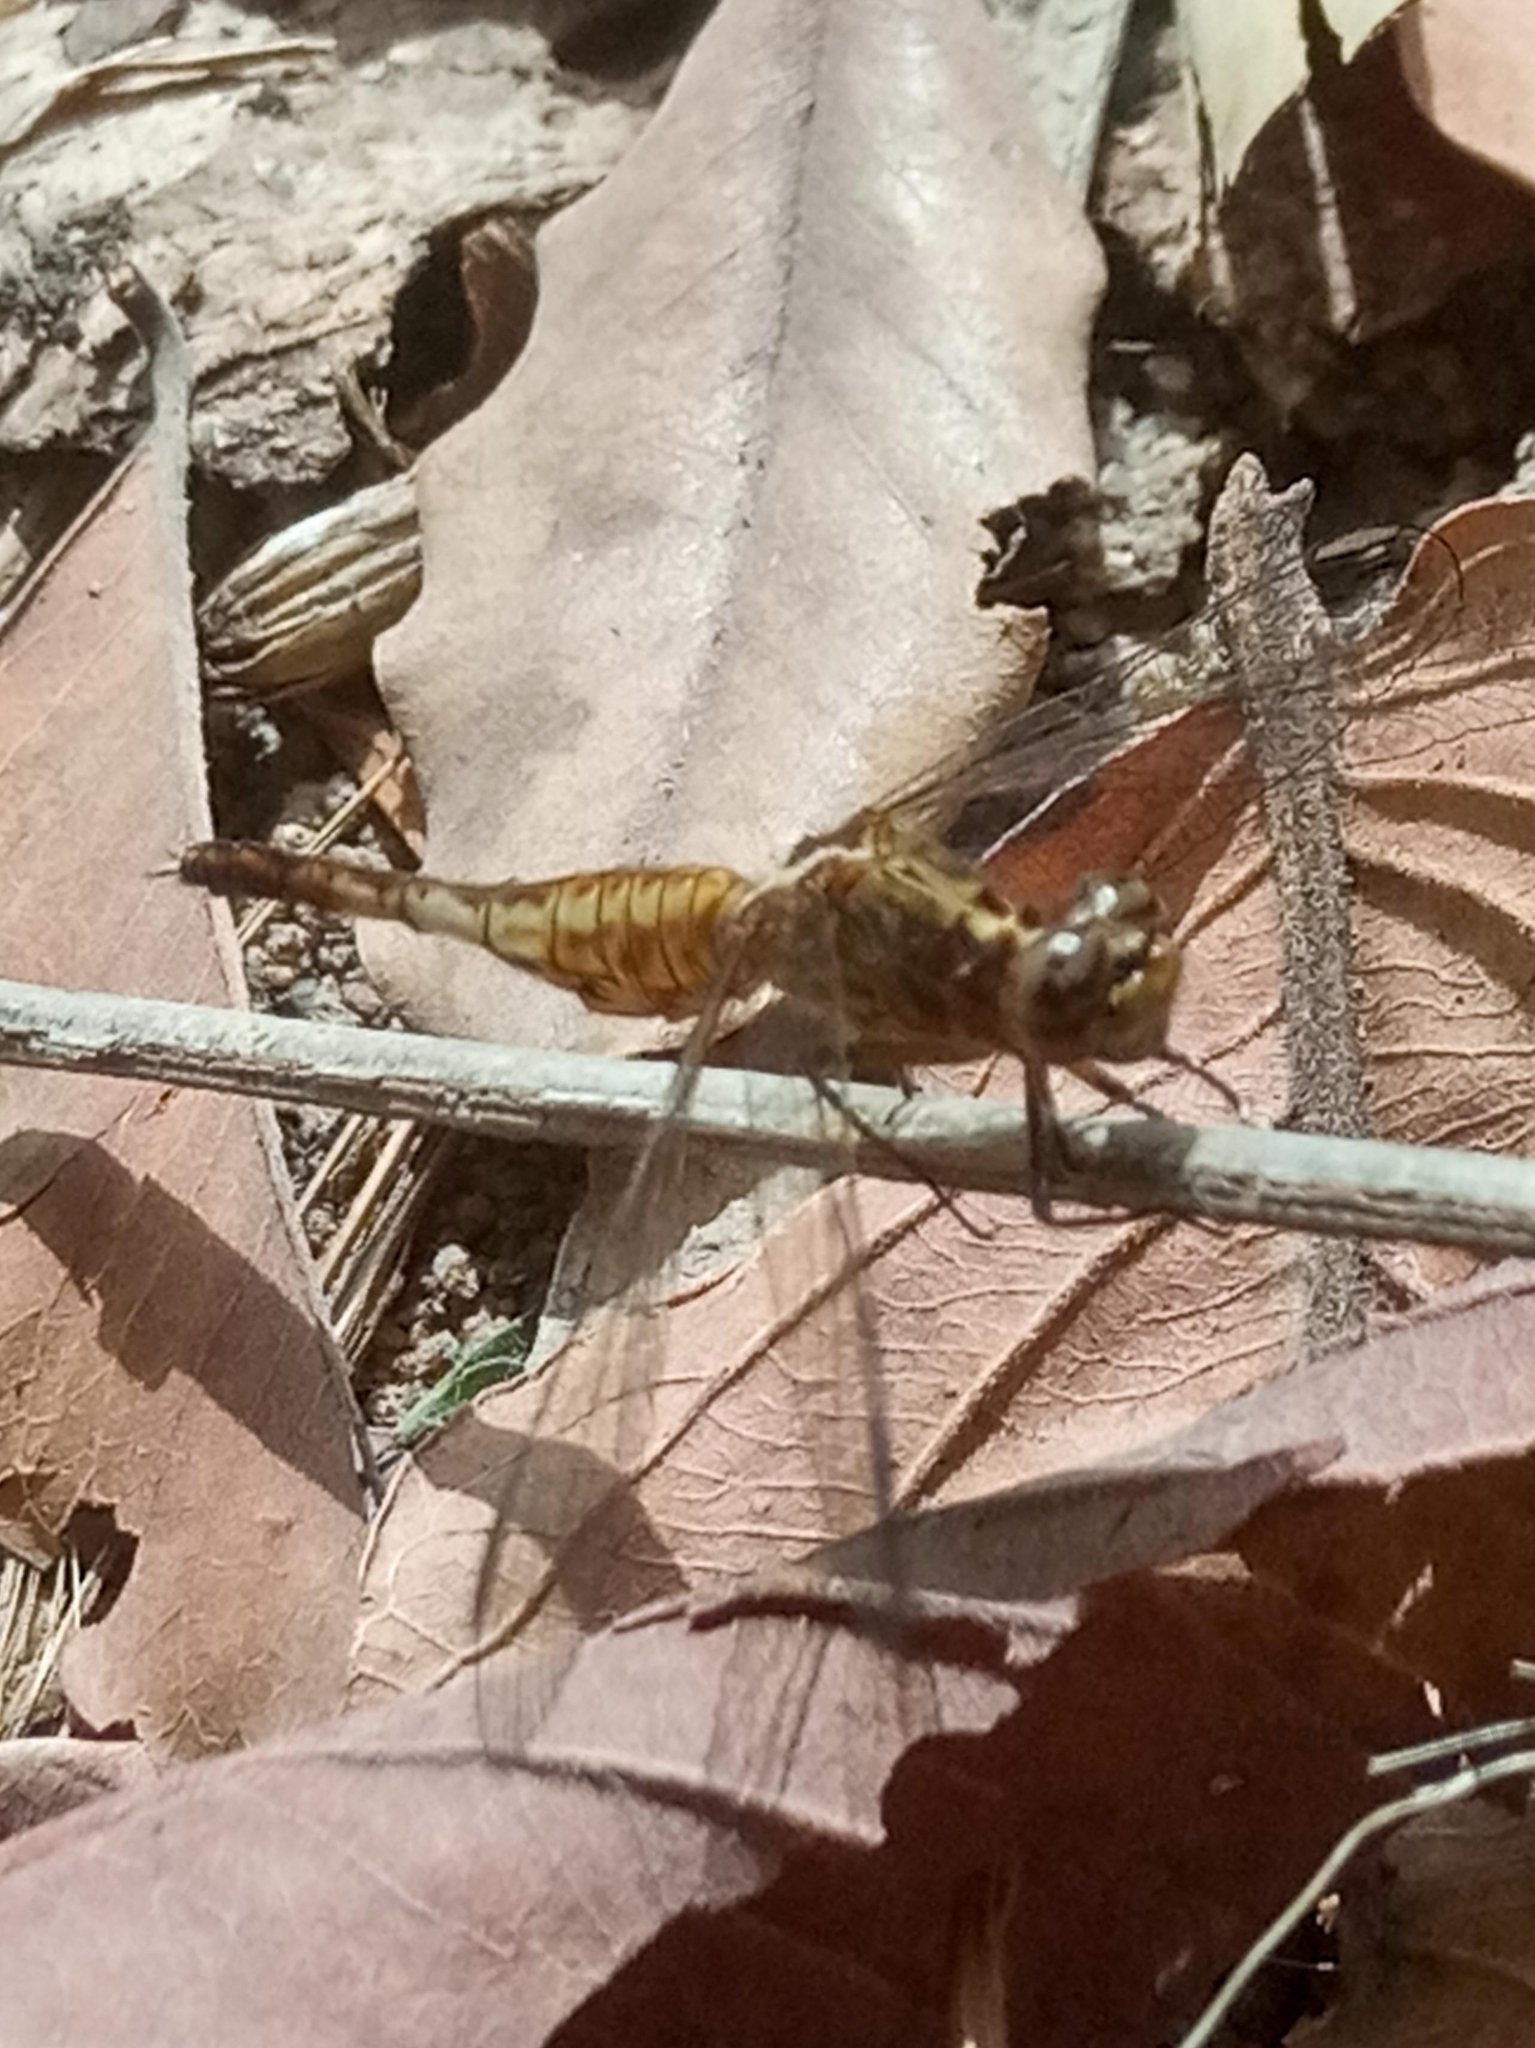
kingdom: Animalia
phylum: Arthropoda
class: Insecta
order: Odonata
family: Libellulidae
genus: Acisoma
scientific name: Acisoma inflatum
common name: Stout pintail
